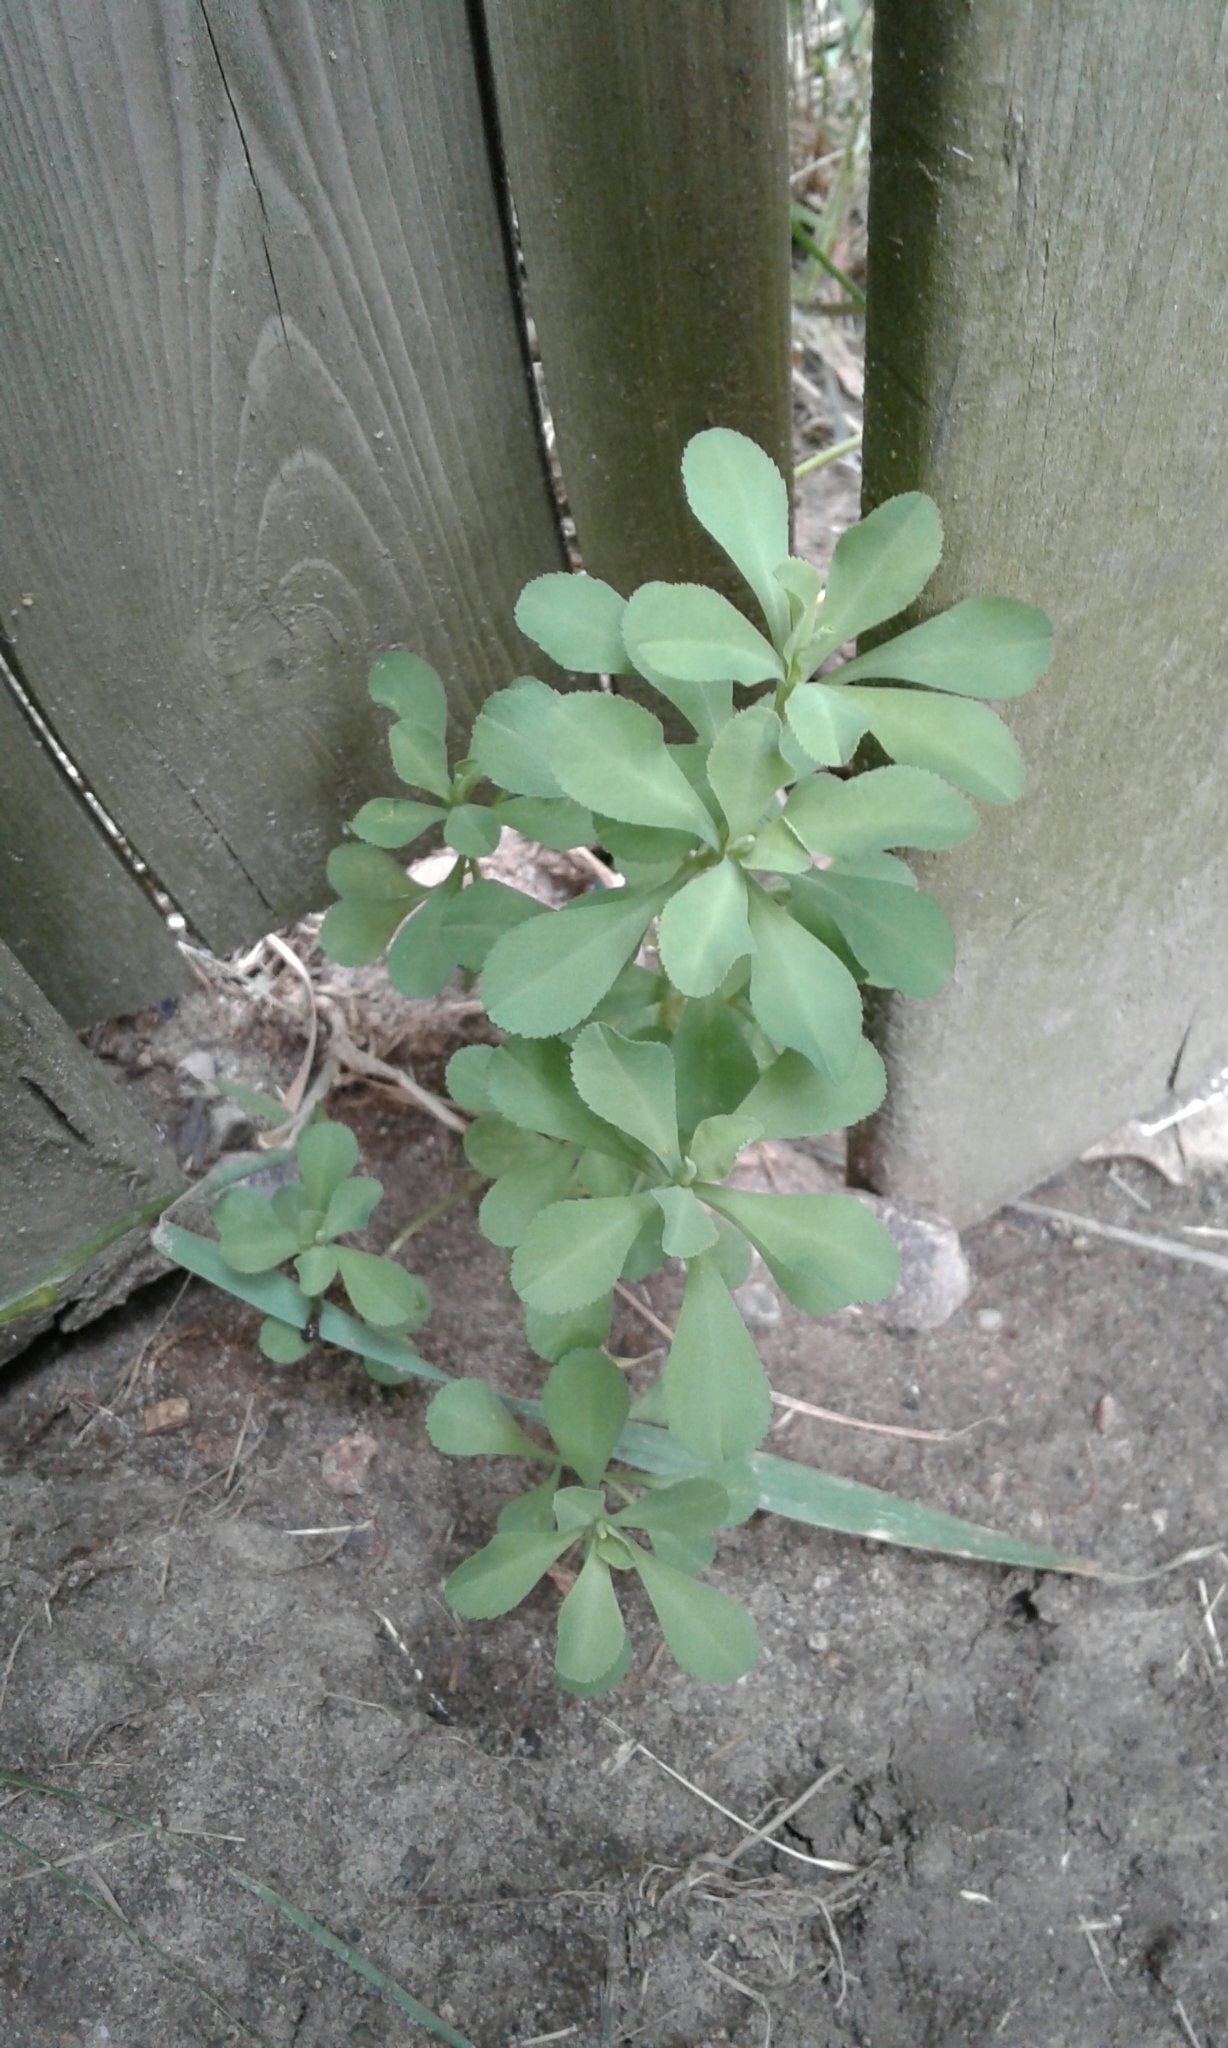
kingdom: Plantae
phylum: Tracheophyta
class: Magnoliopsida
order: Ranunculales
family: Berberidaceae
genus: Berberis
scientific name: Berberis thunbergii
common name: Japanese barberry
